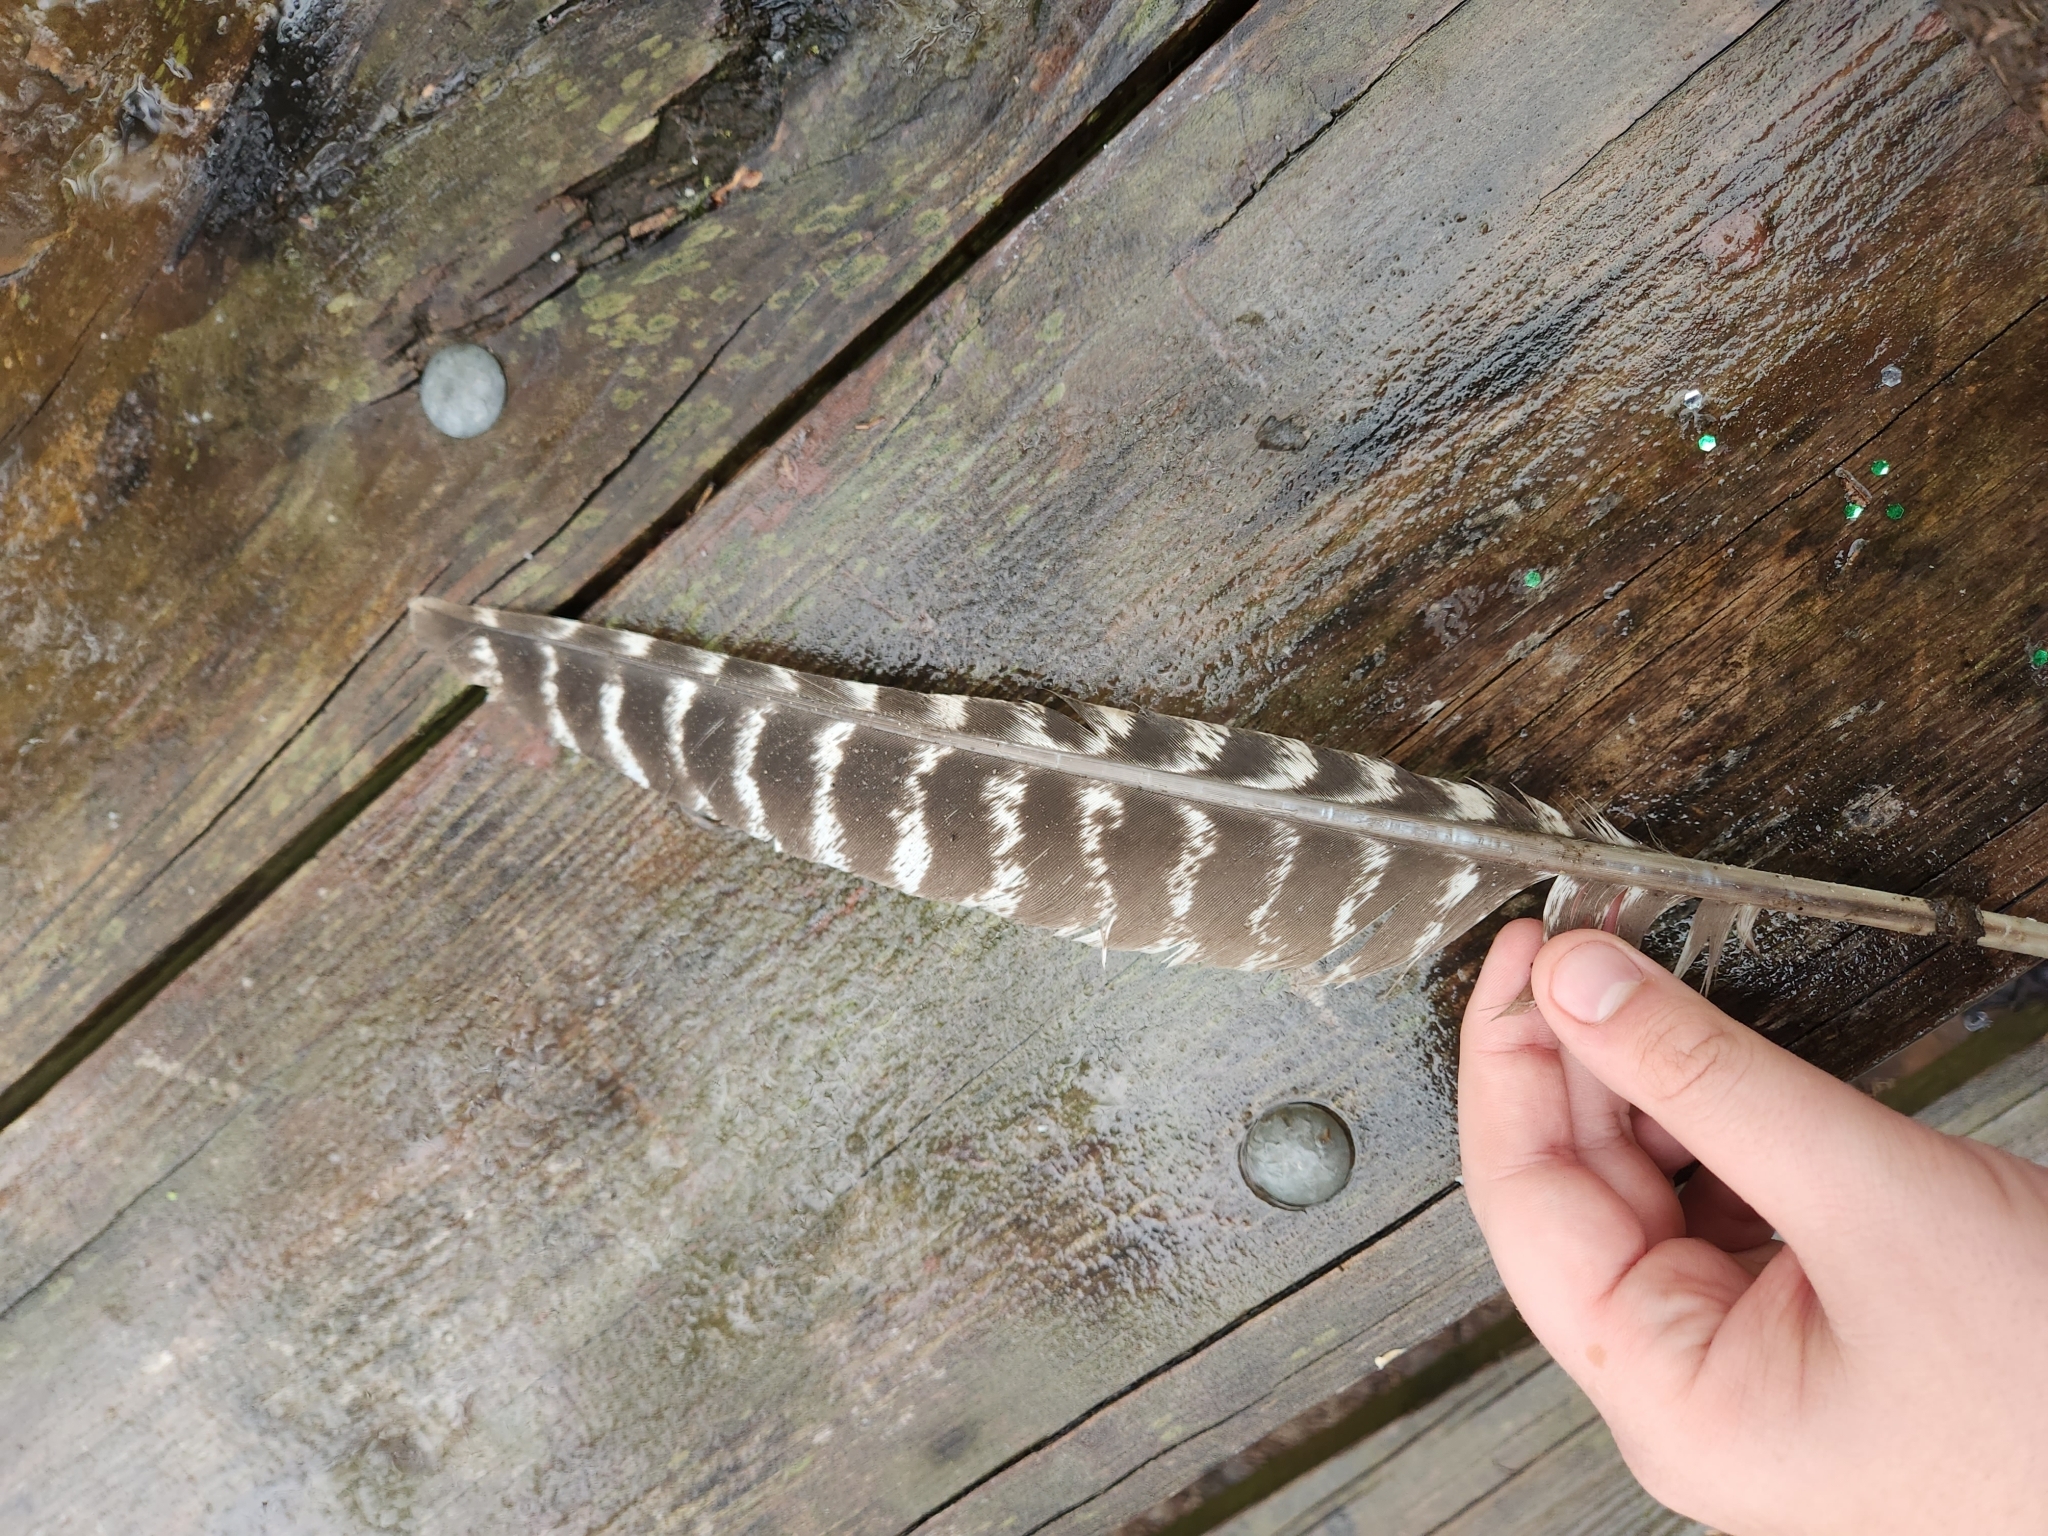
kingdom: Animalia
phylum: Chordata
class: Aves
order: Galliformes
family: Phasianidae
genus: Meleagris
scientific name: Meleagris gallopavo
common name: Wild turkey
